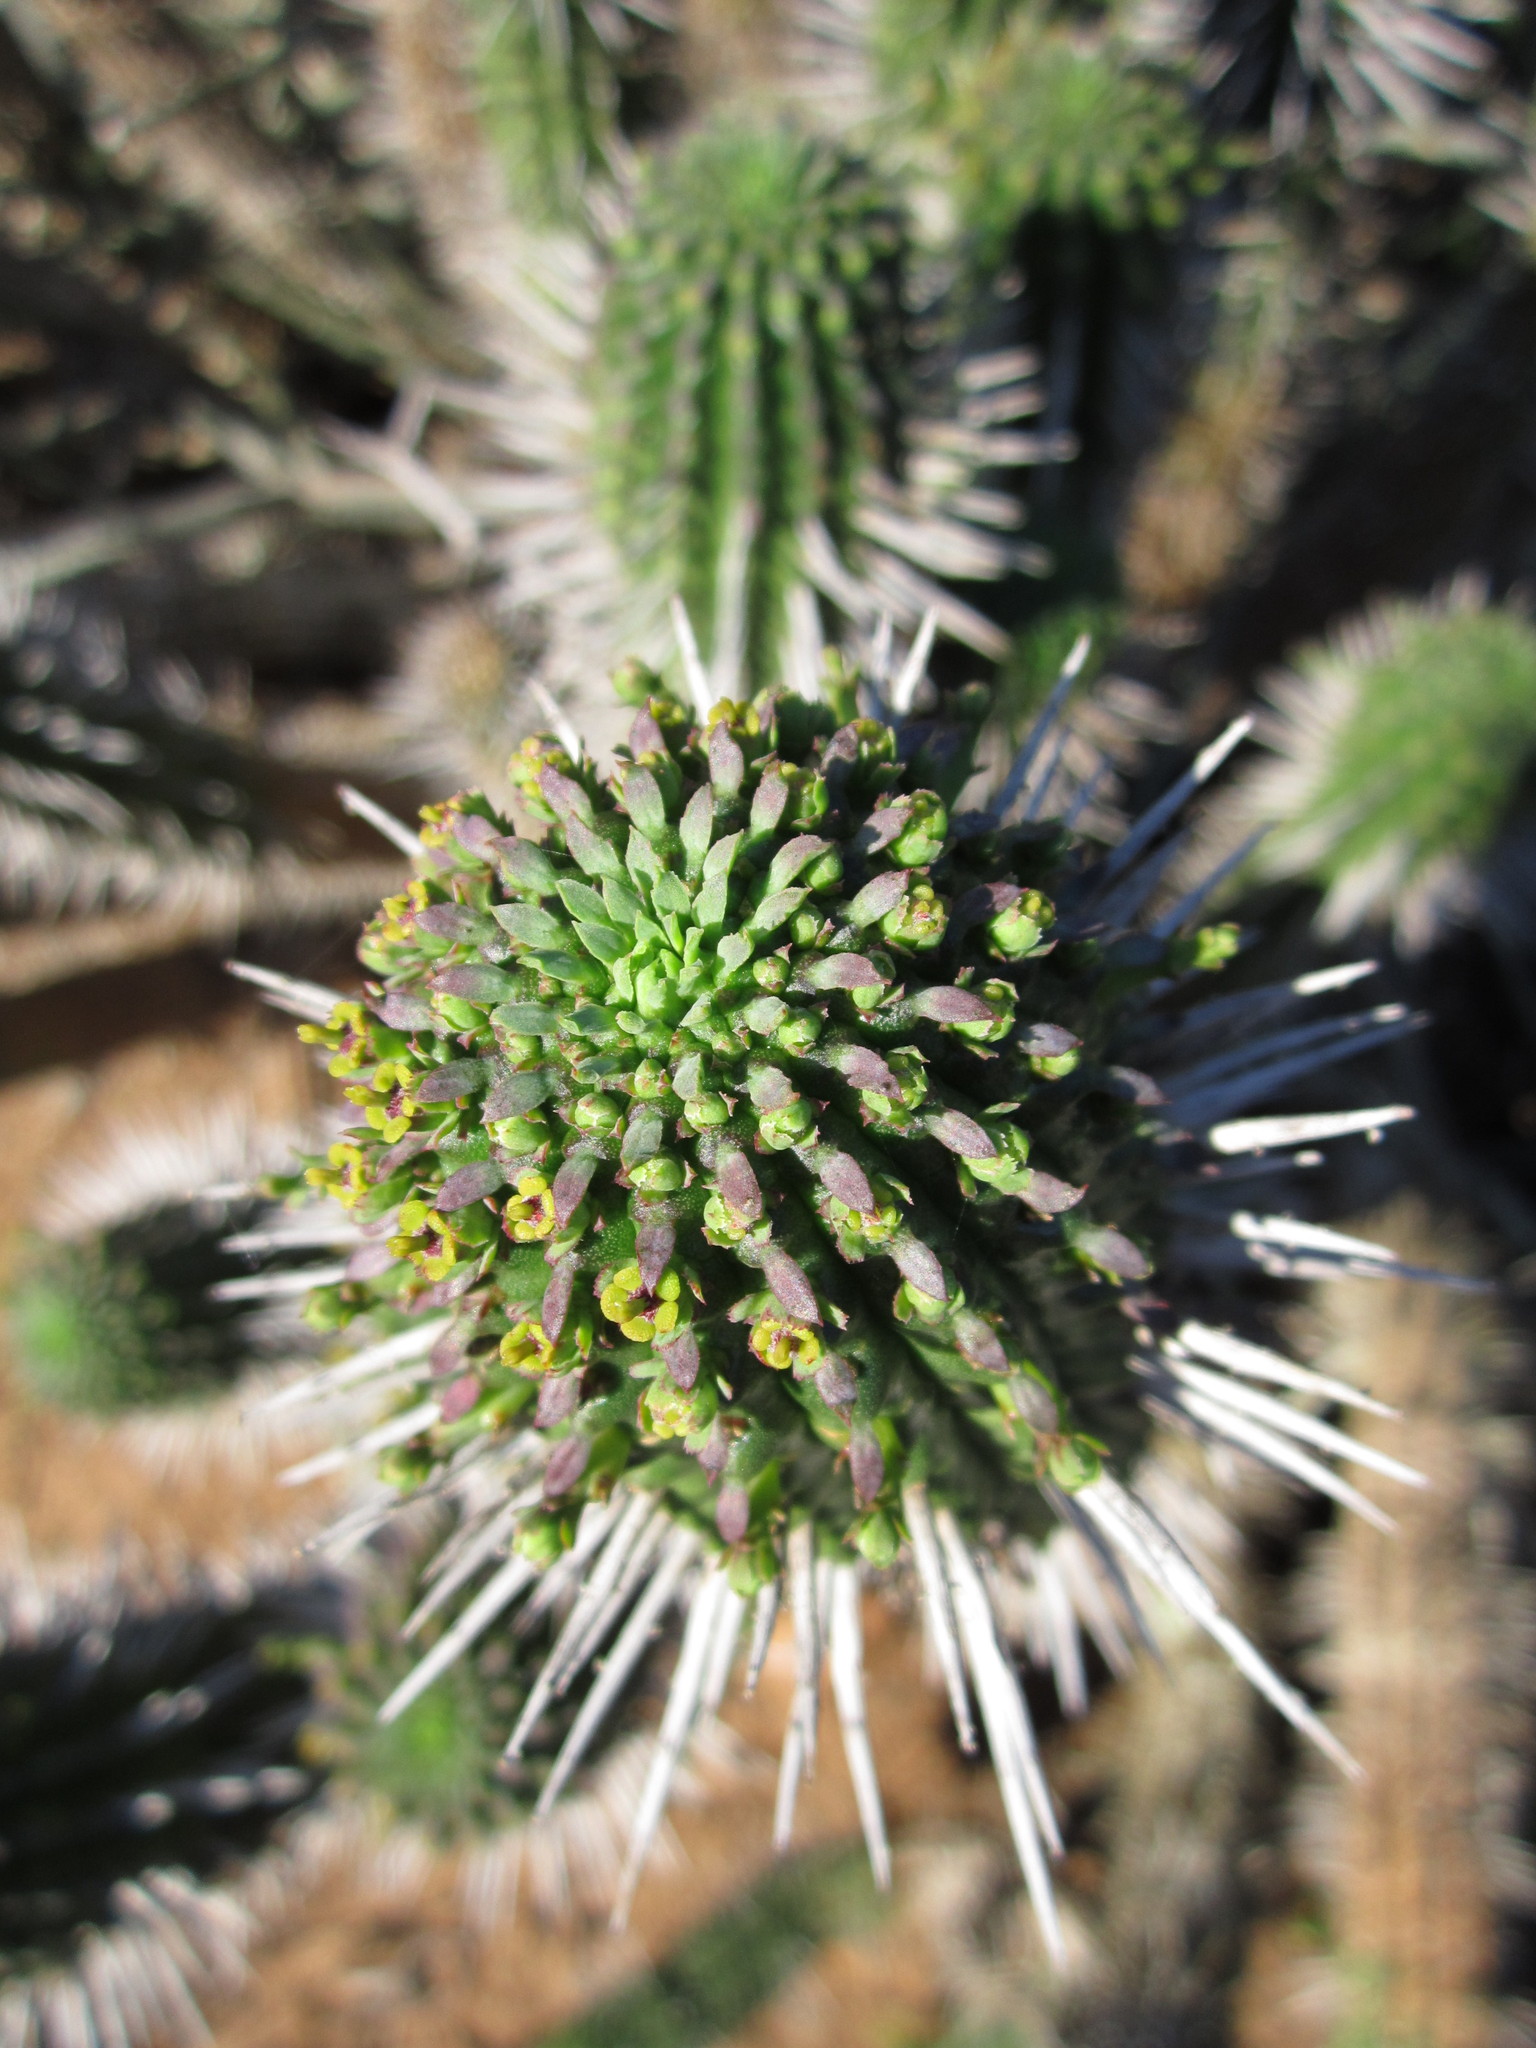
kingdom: Plantae
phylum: Tracheophyta
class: Magnoliopsida
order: Malpighiales
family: Euphorbiaceae
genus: Euphorbia
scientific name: Euphorbia mammillaris
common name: Corkscrew
